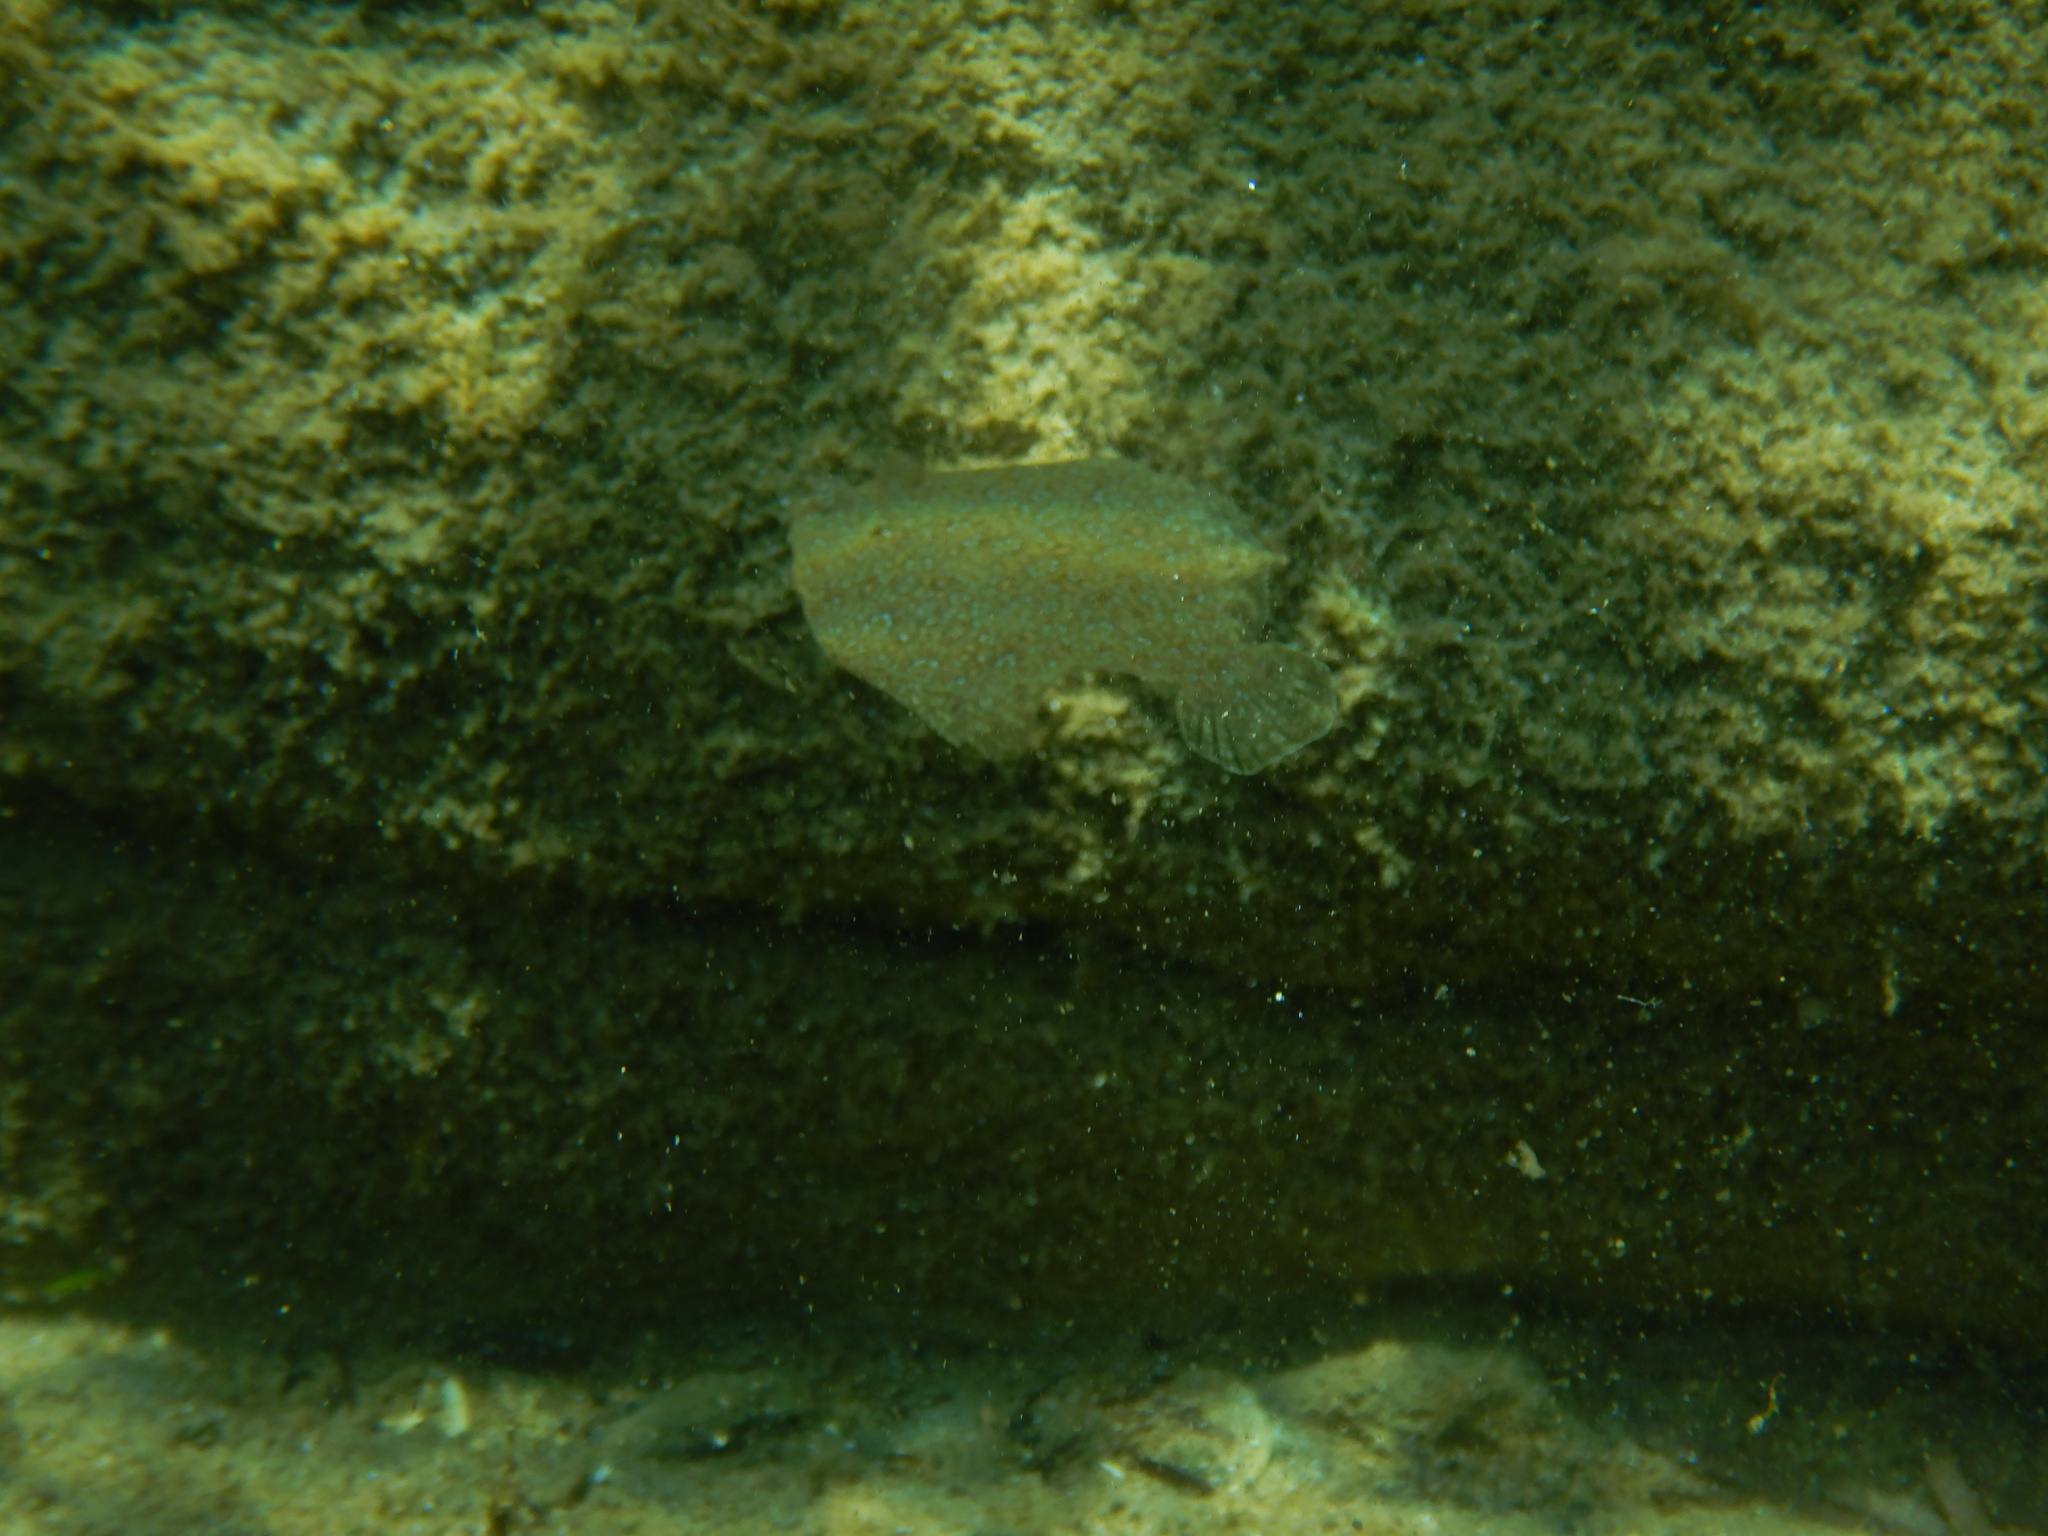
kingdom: Animalia
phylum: Chordata
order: Pleuronectiformes
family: Bothidae
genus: Bothus
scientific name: Bothus podas
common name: Wide-eyed flounder
